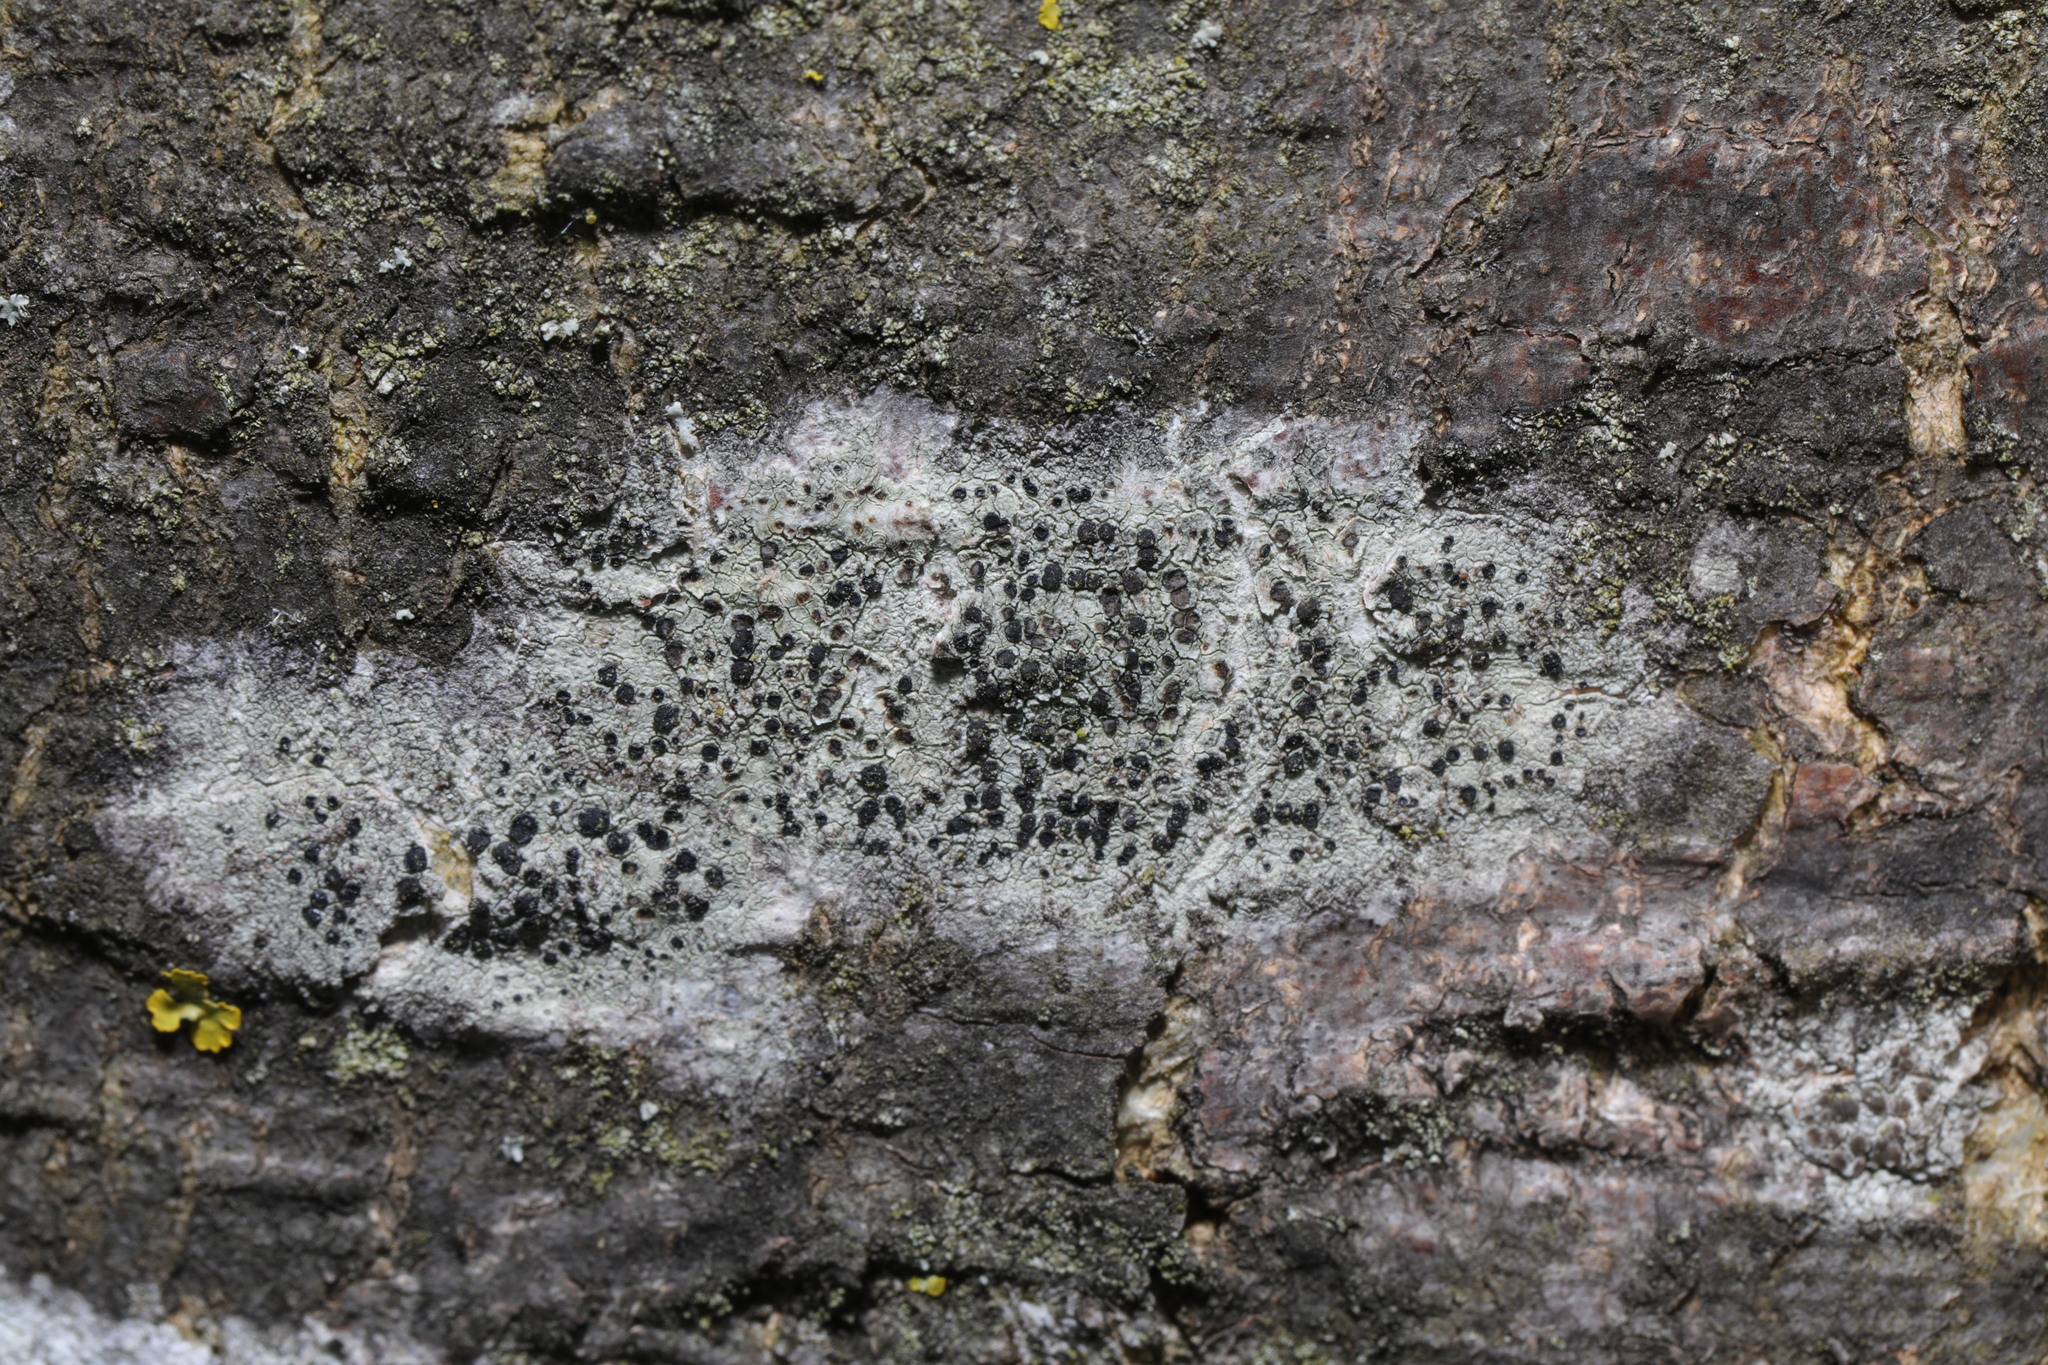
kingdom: Fungi
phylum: Ascomycota
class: Lecanoromycetes
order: Lecanorales
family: Lecanoraceae
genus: Lecidella
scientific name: Lecidella elaeochroma
